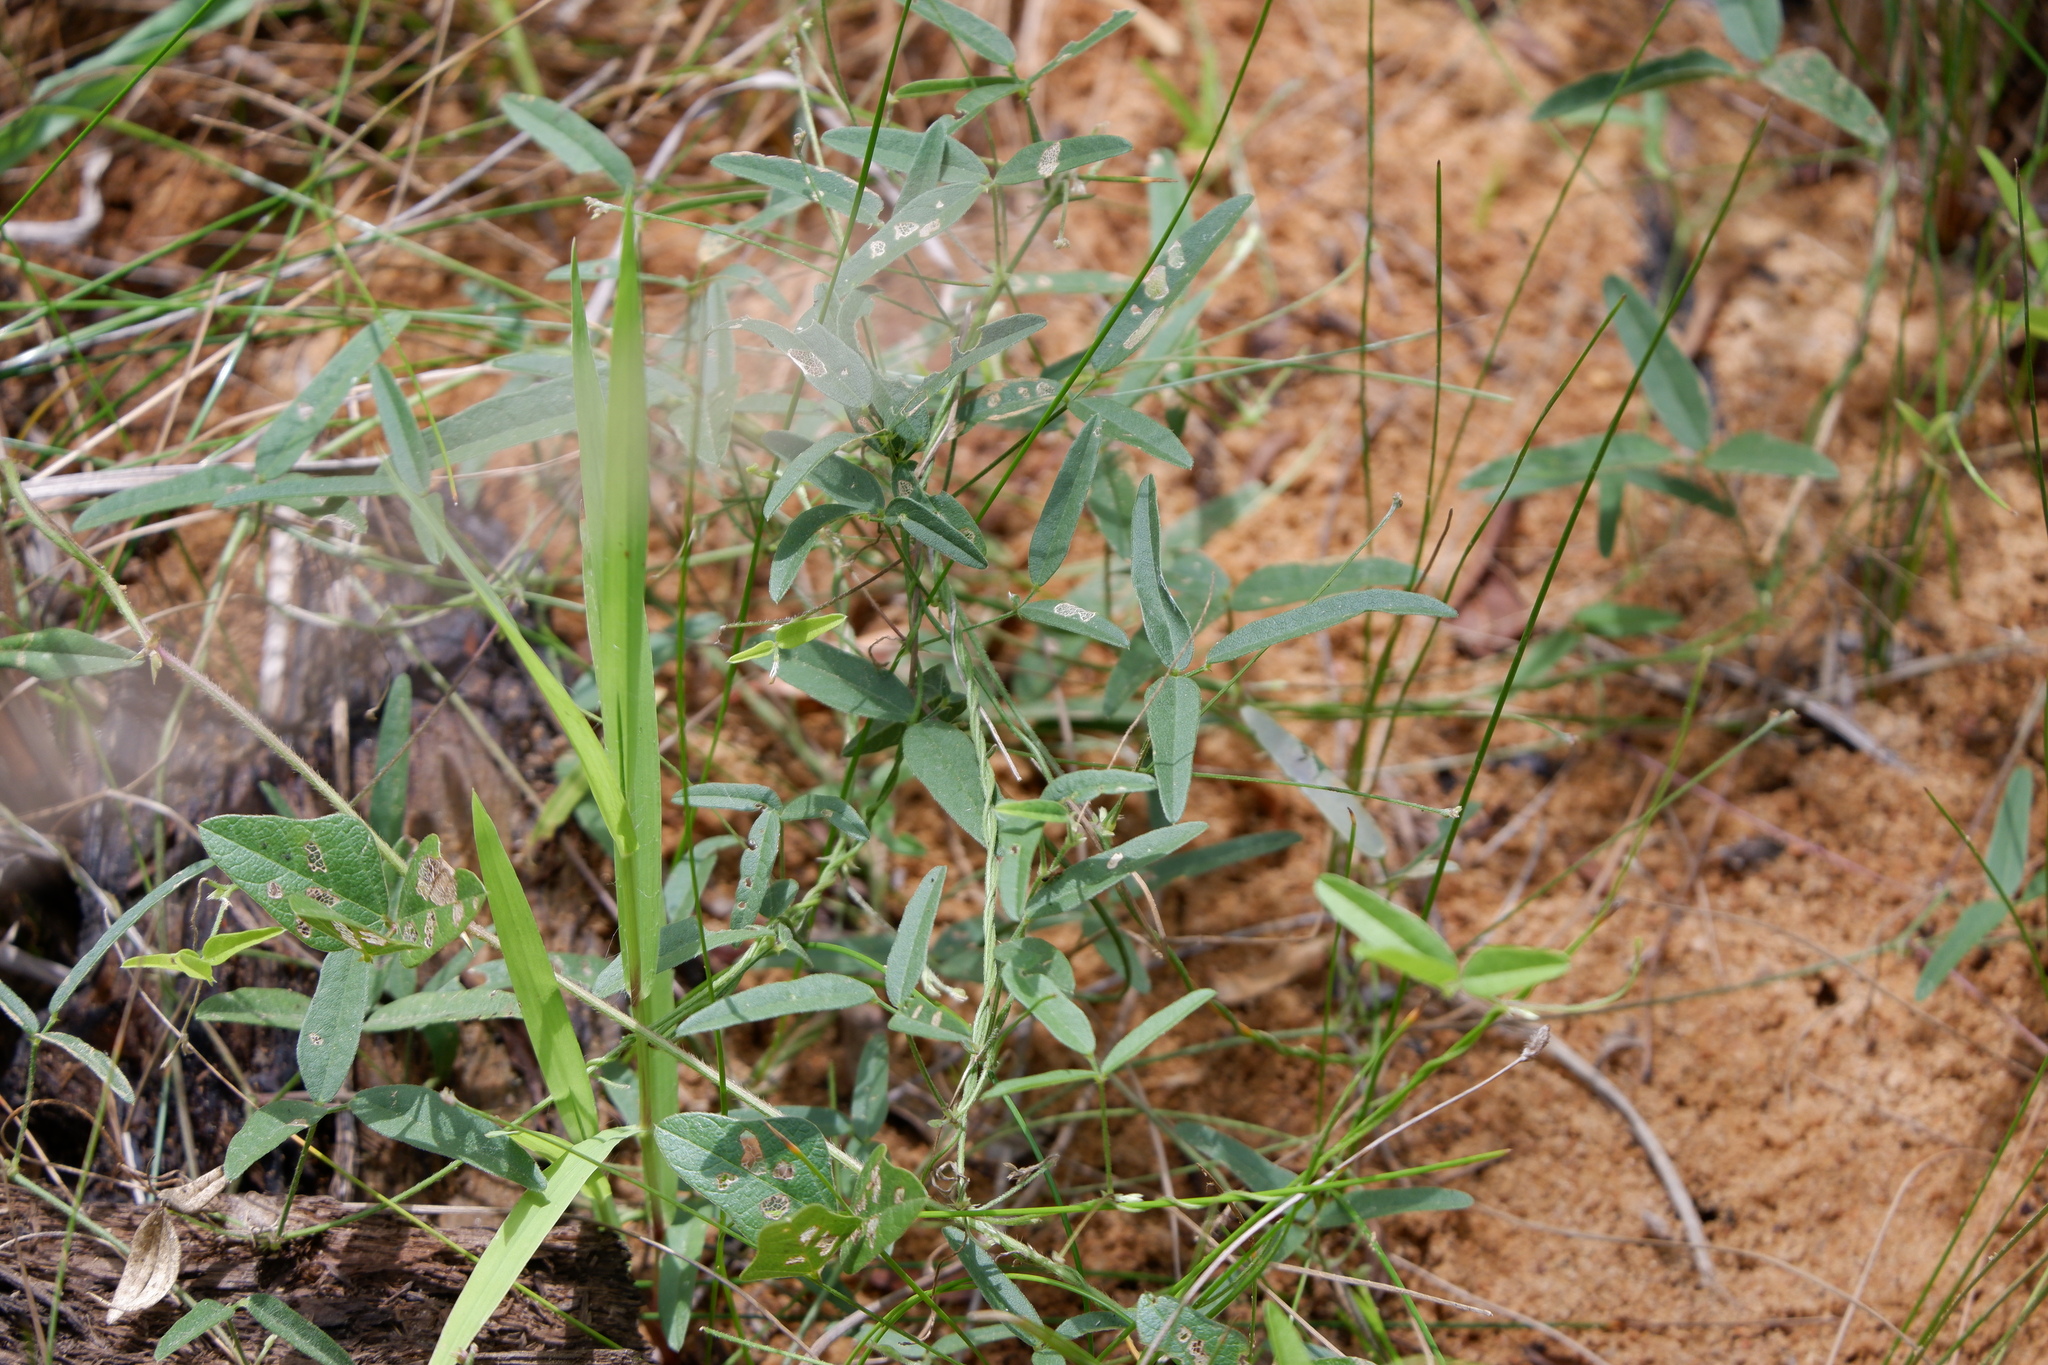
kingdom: Plantae
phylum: Tracheophyta
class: Magnoliopsida
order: Fabales
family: Fabaceae
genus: Strophostyles
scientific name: Strophostyles leiosperma
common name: Smooth-seed wild bean
